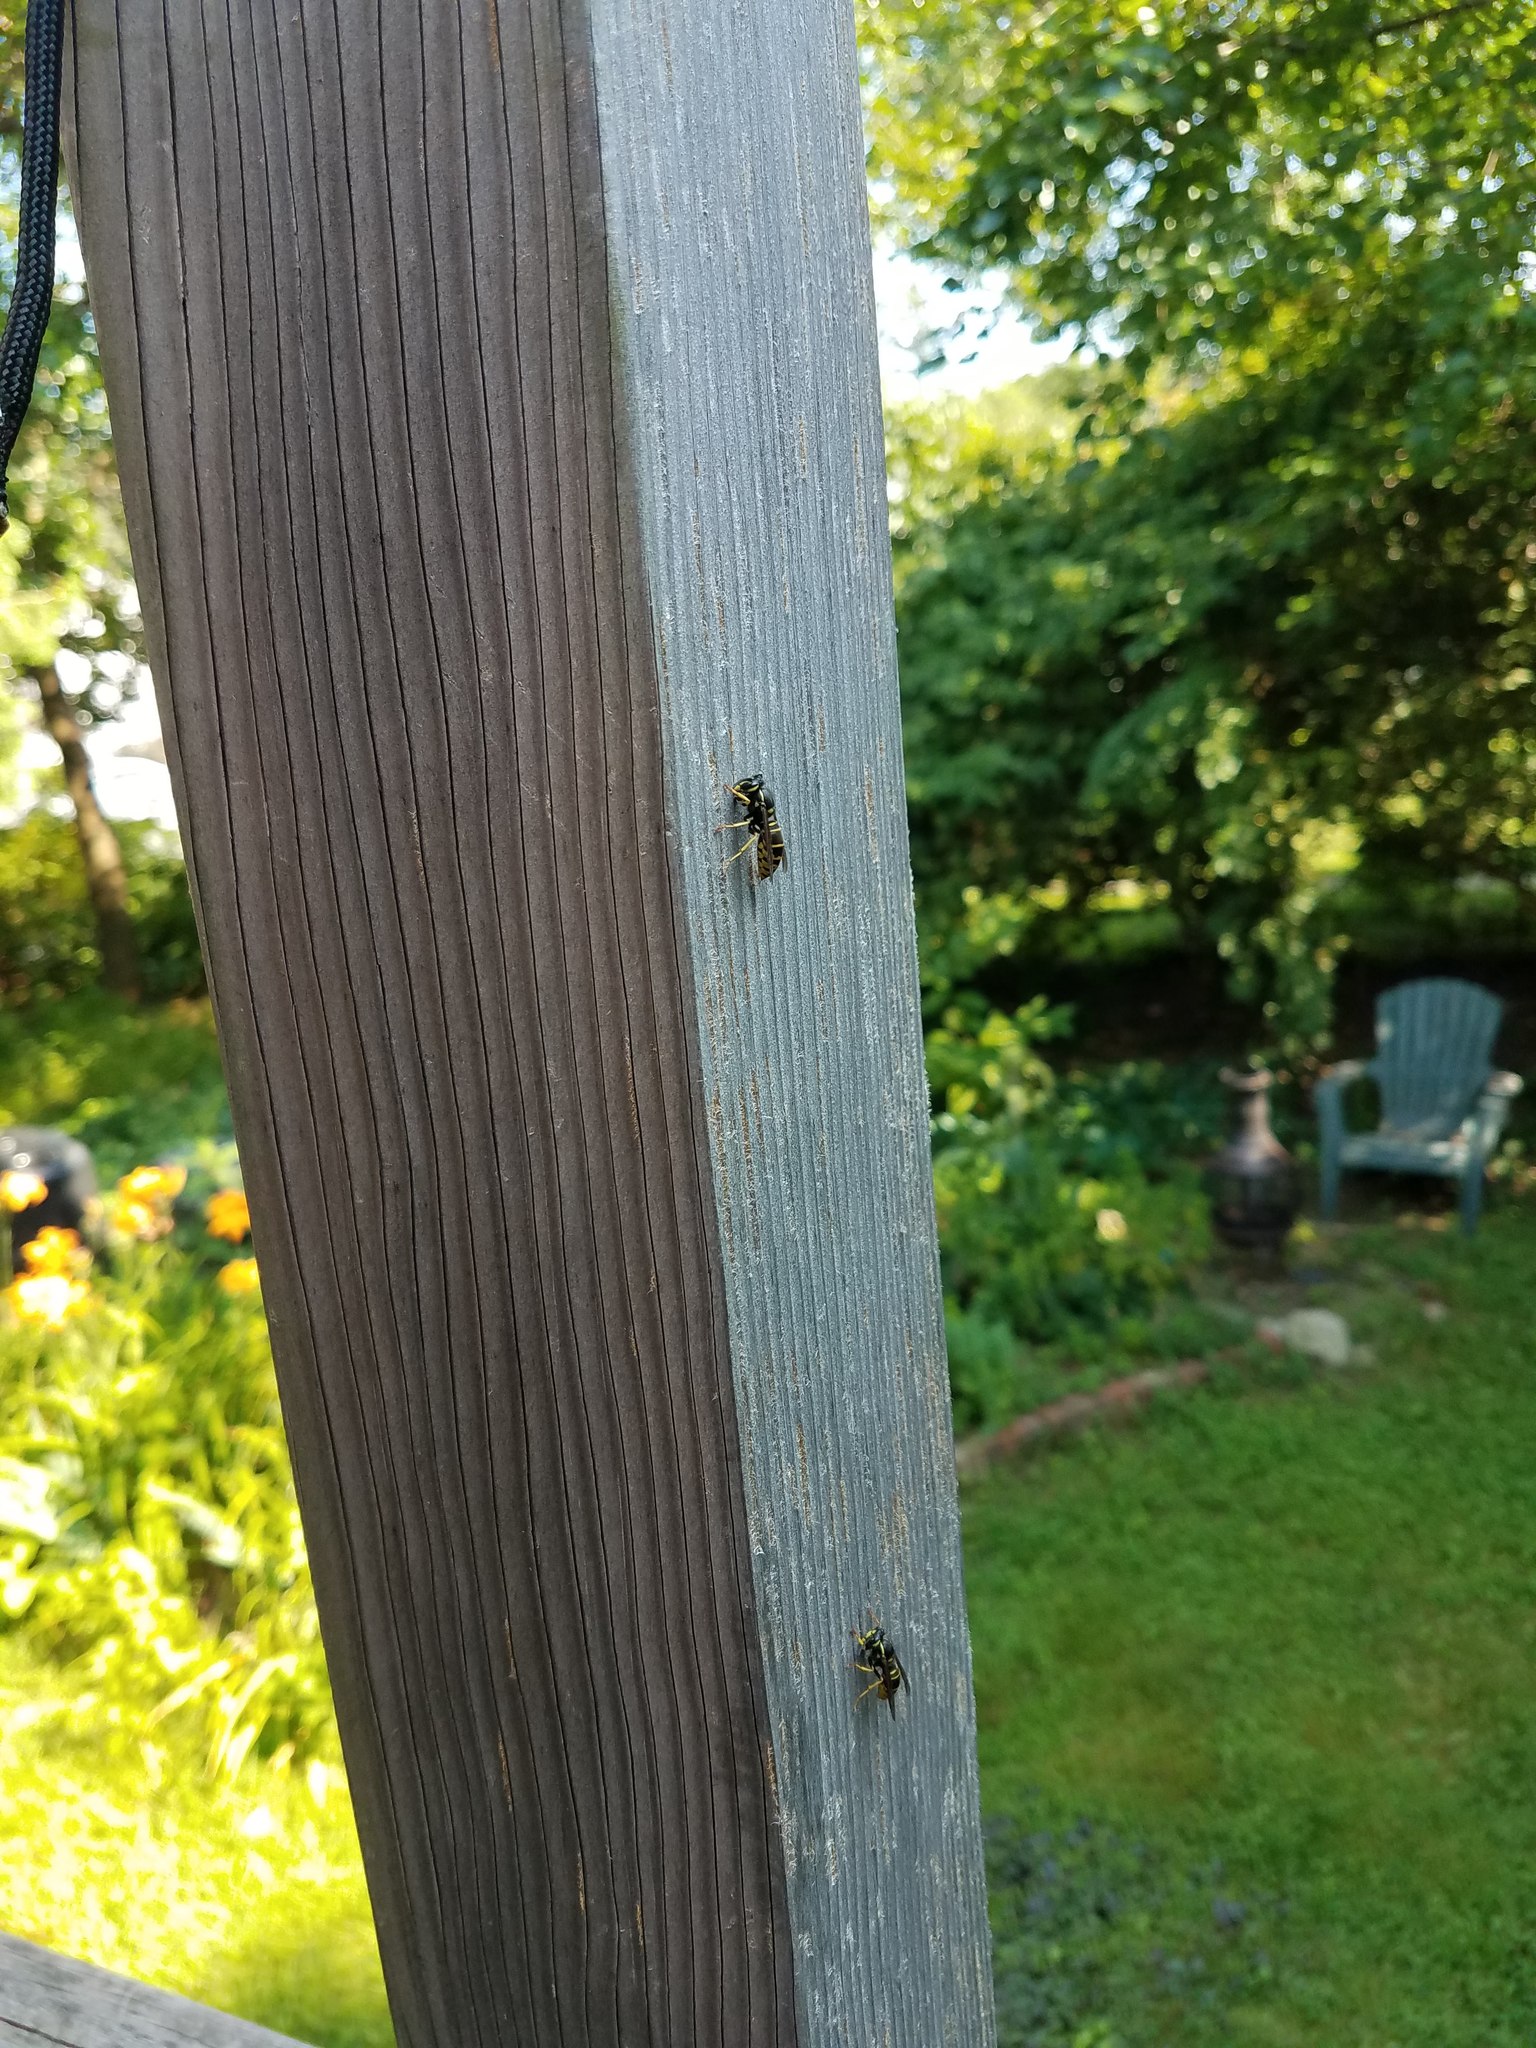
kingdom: Animalia
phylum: Arthropoda
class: Insecta
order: Hymenoptera
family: Vespidae
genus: Vespula
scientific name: Vespula vidua
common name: Widow yellowjacket
